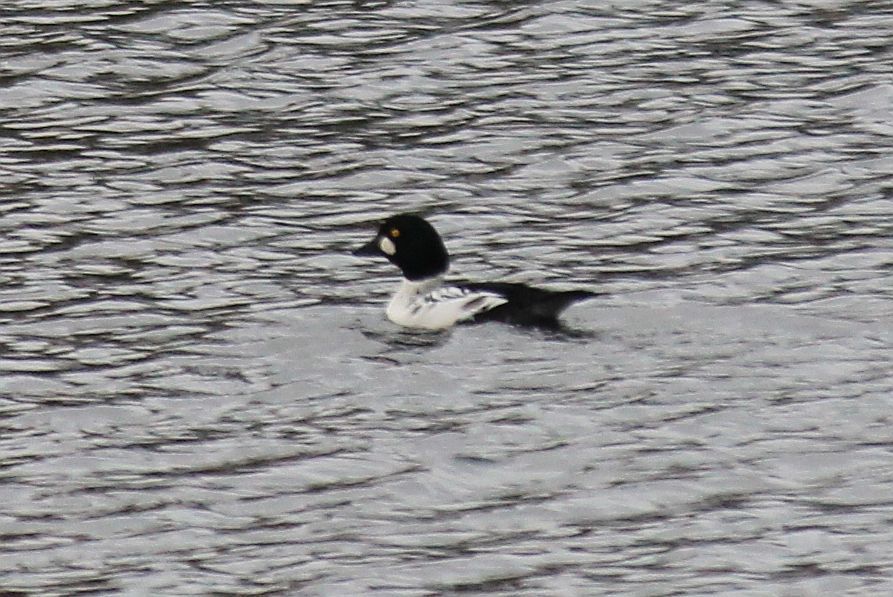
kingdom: Animalia
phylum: Chordata
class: Aves
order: Anseriformes
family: Anatidae
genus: Bucephala
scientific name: Bucephala clangula
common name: Common goldeneye
